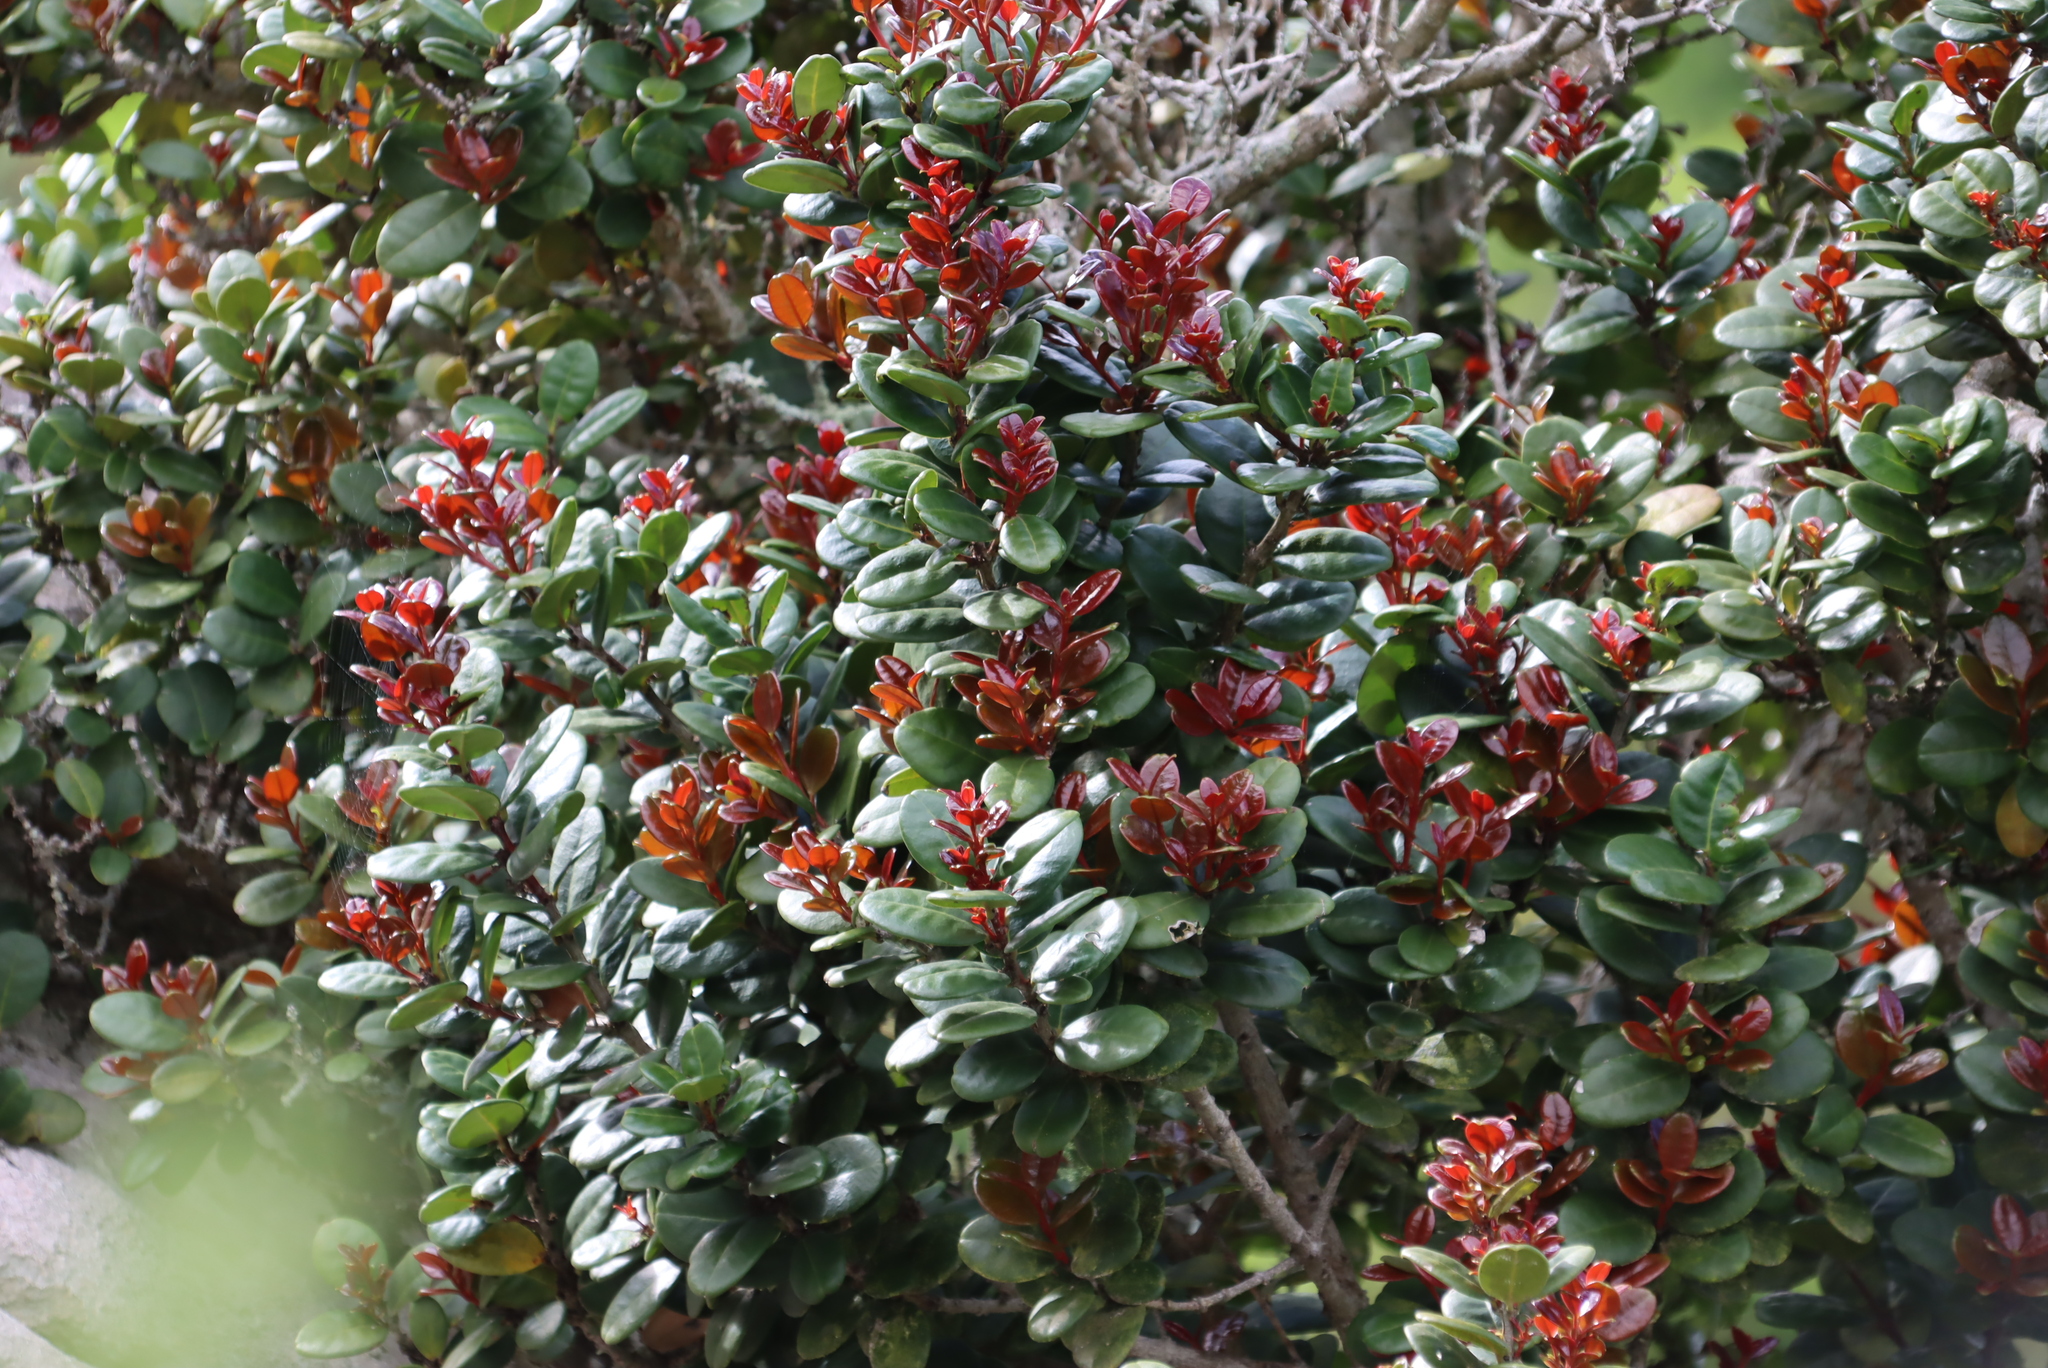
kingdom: Plantae
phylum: Tracheophyta
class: Magnoliopsida
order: Celastrales
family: Celastraceae
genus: Maurocenia
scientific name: Maurocenia frangula
